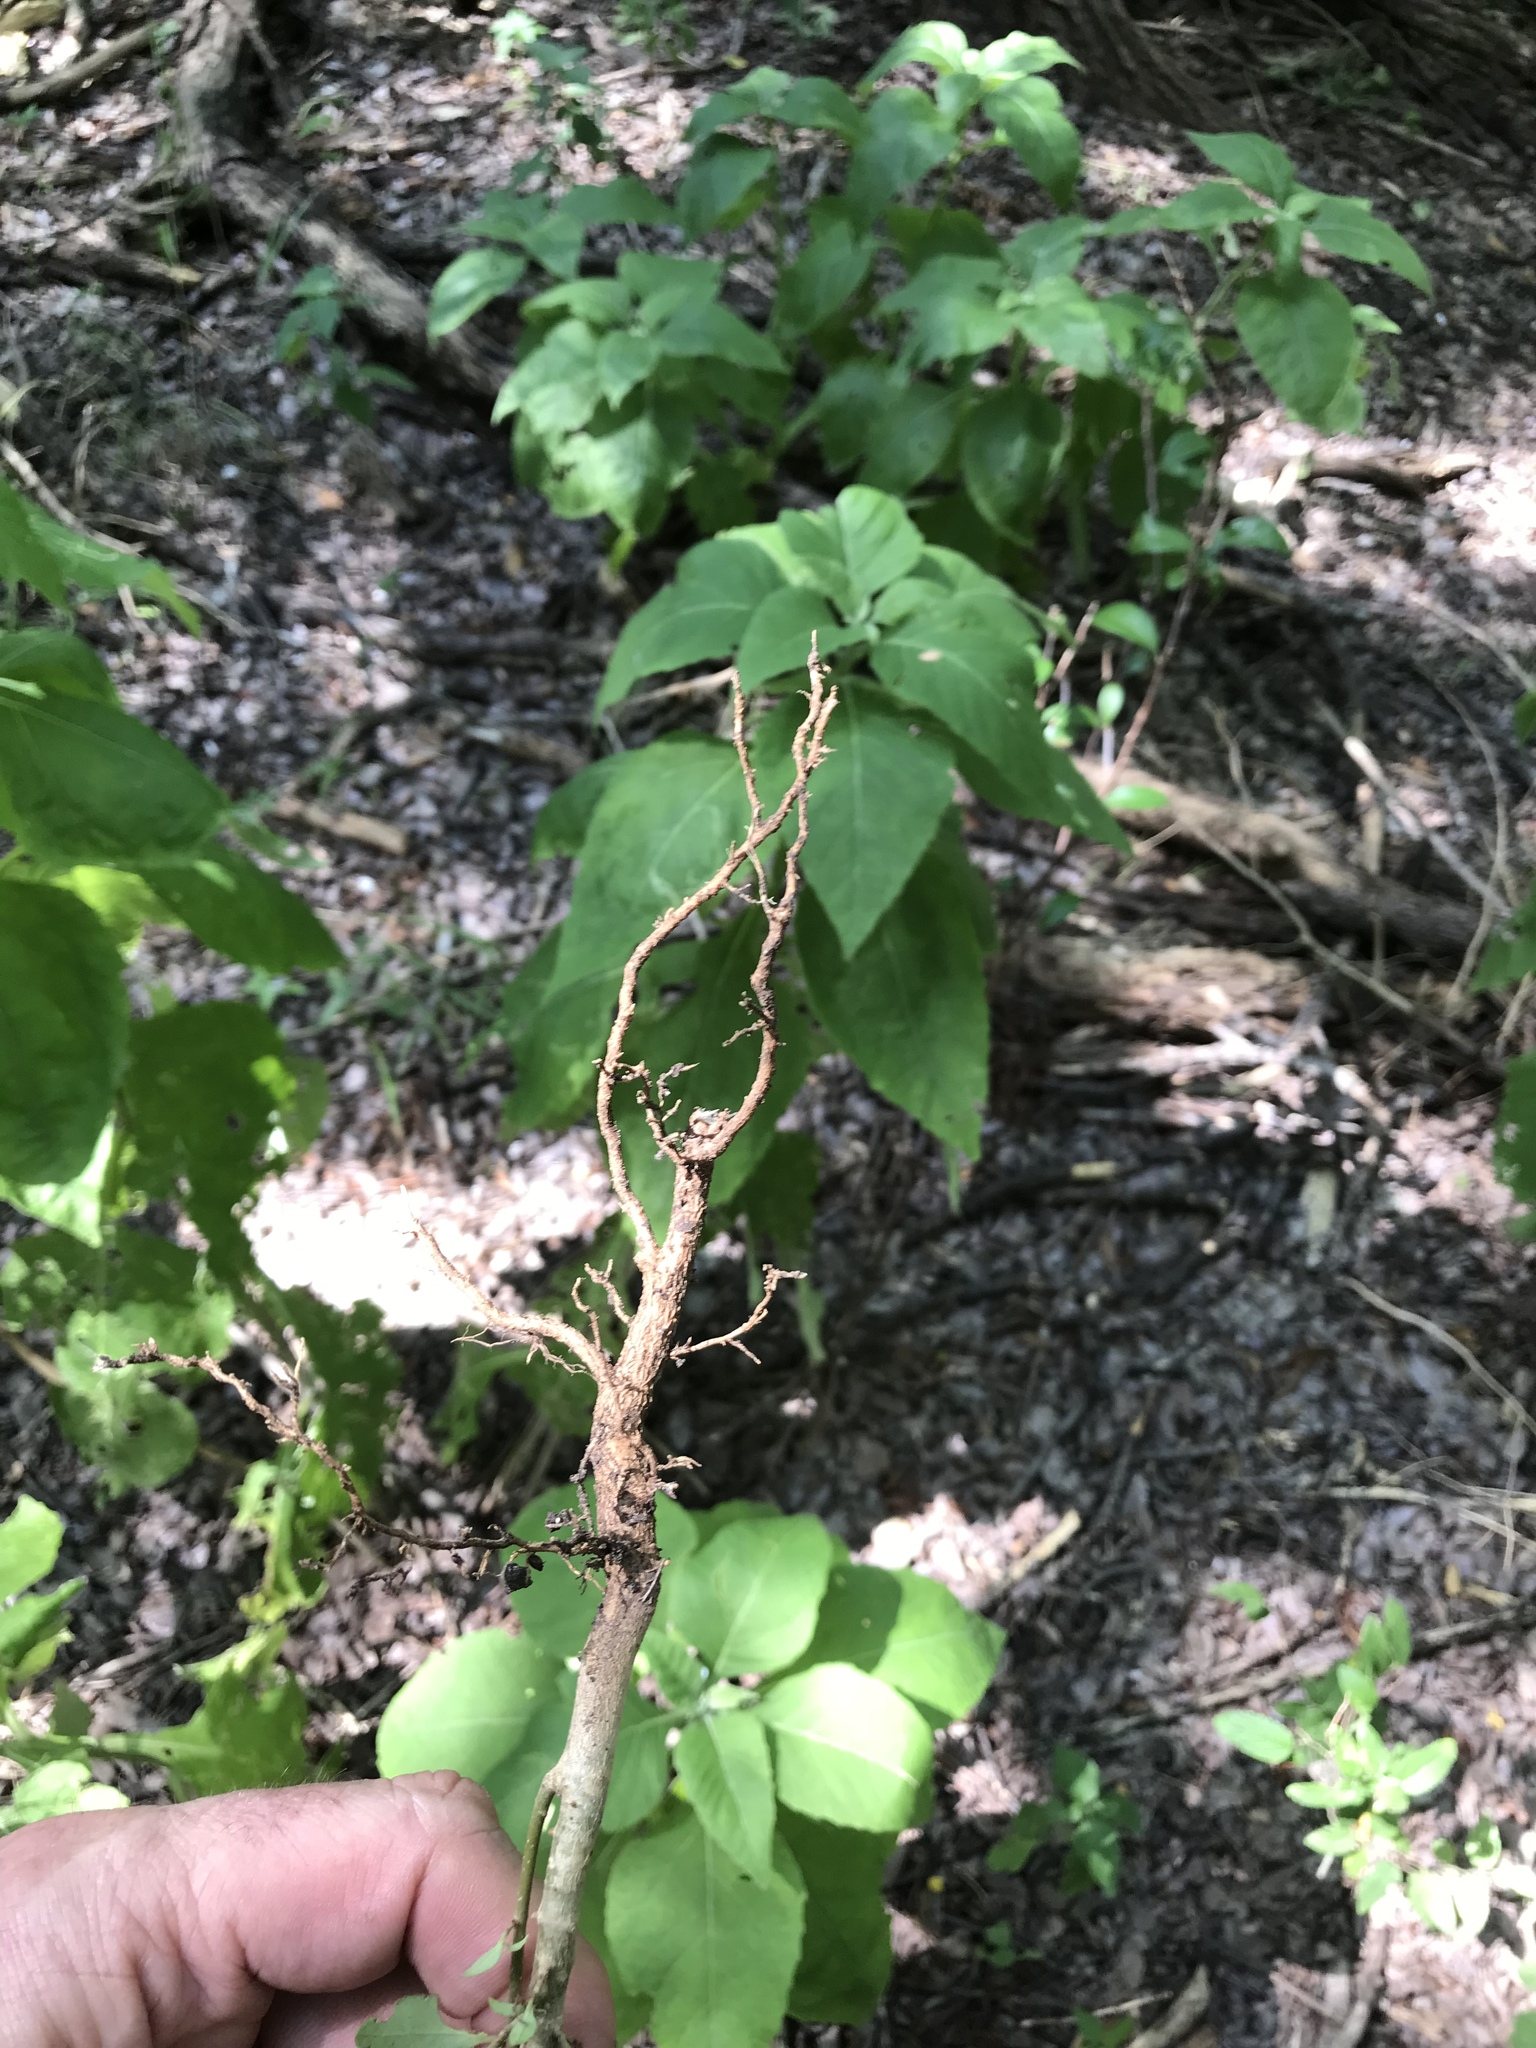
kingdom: Plantae
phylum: Tracheophyta
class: Magnoliopsida
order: Lamiales
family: Oleaceae
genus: Ligustrum
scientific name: Ligustrum lucidum
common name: Glossy privet
